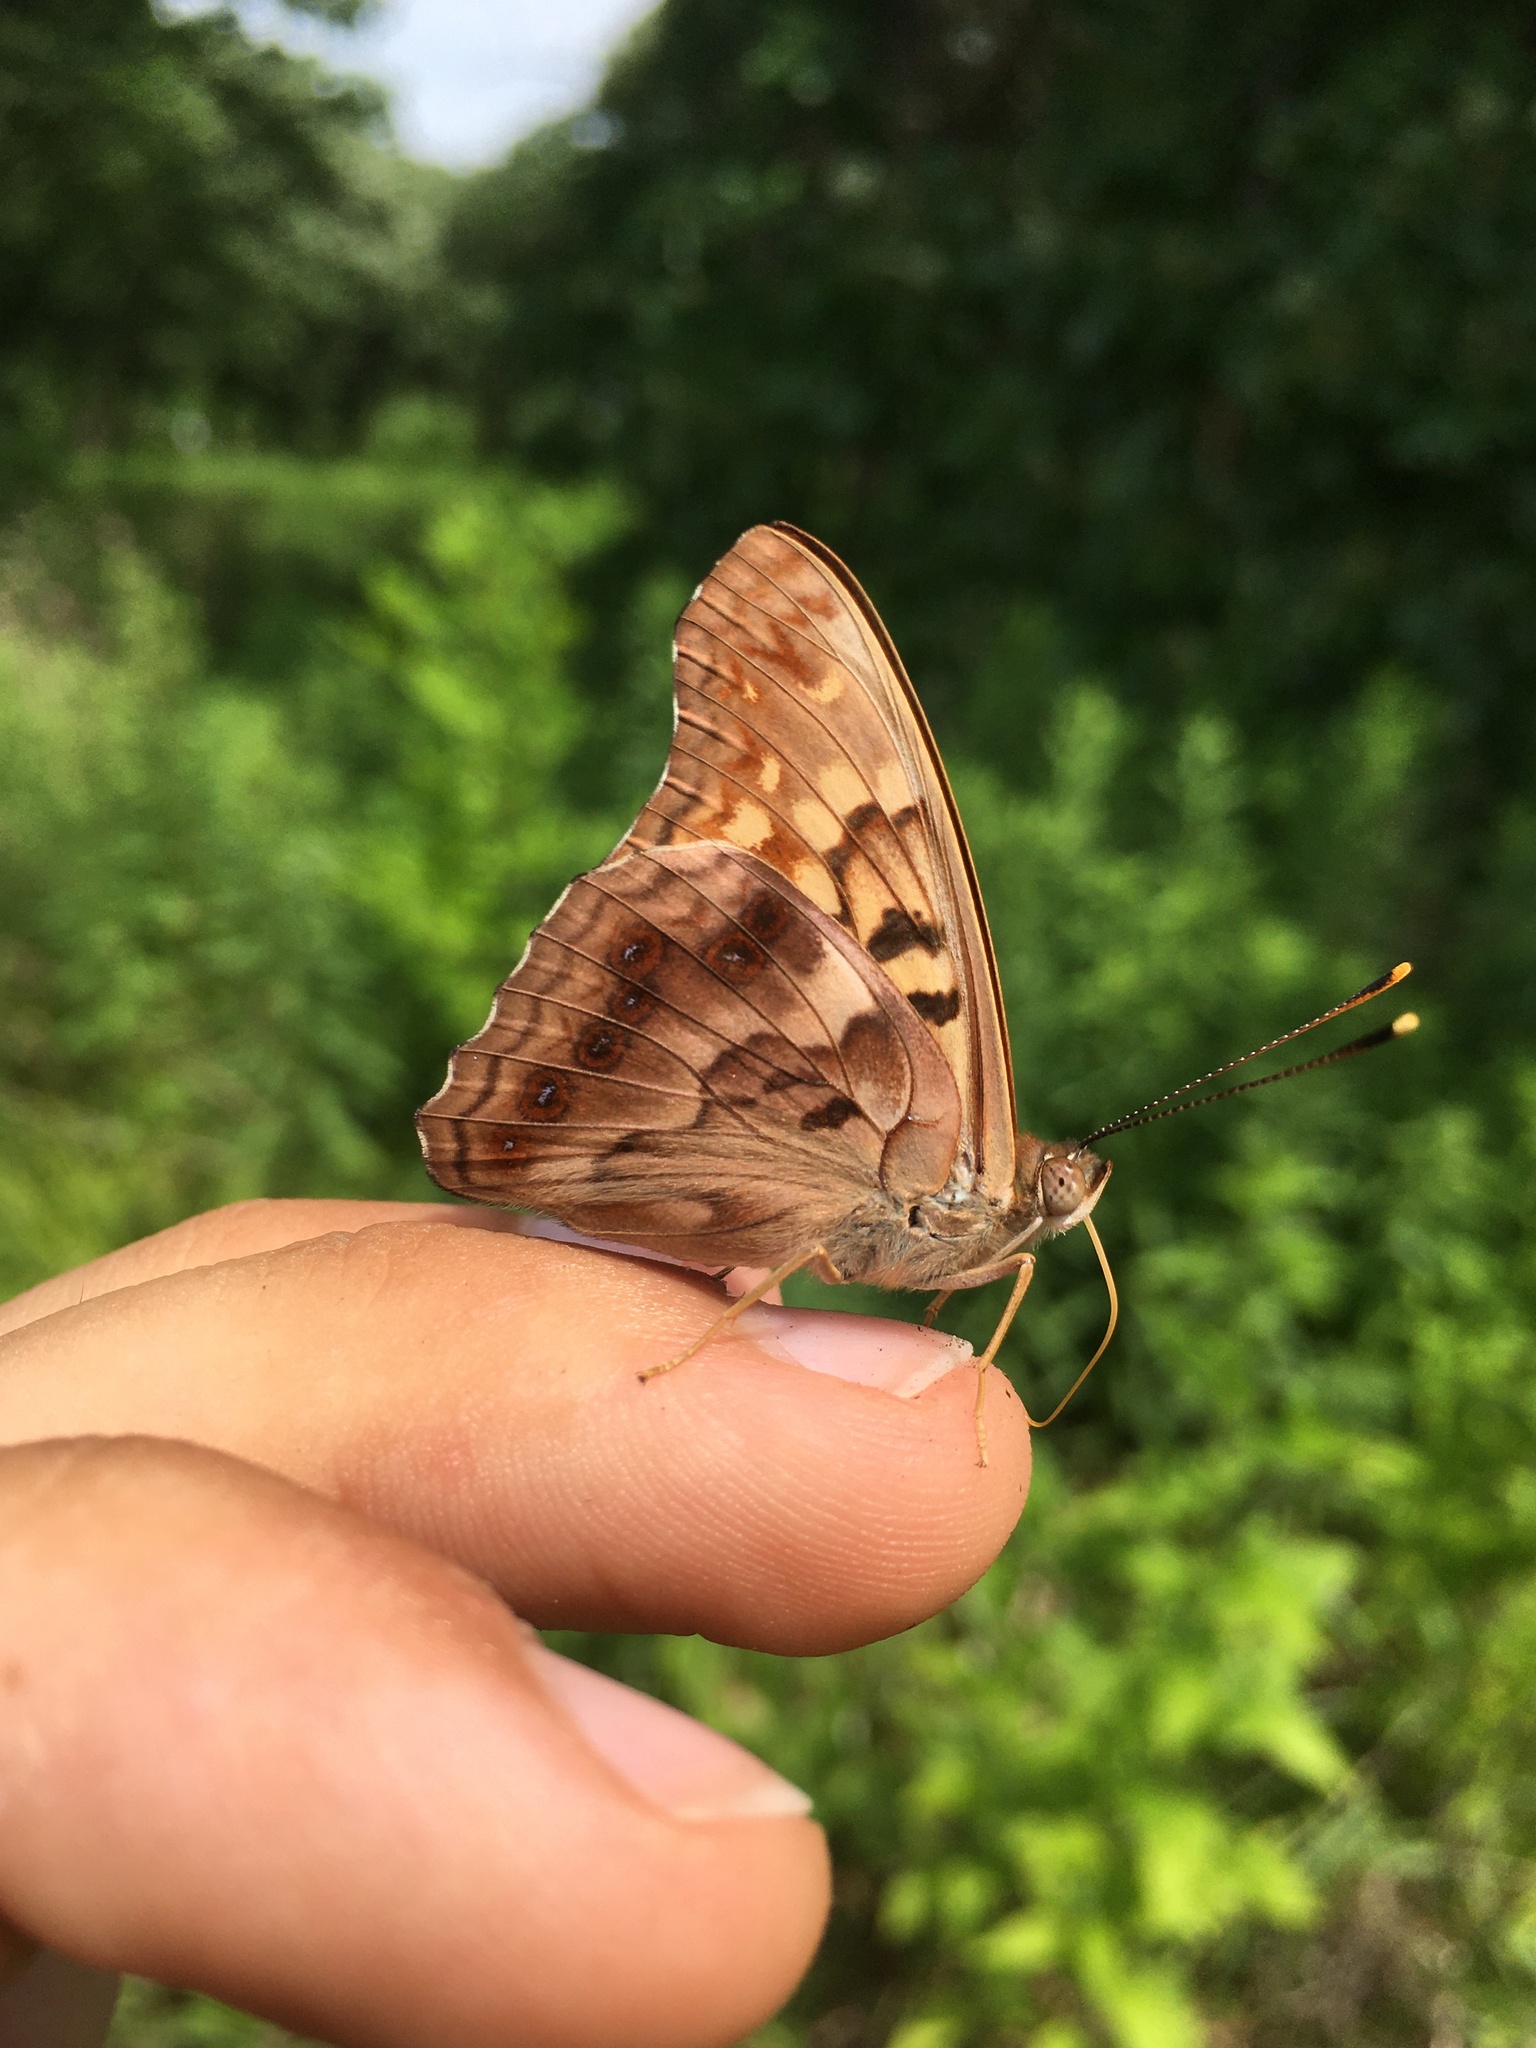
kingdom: Animalia
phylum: Arthropoda
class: Insecta
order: Lepidoptera
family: Nymphalidae
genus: Asterocampa
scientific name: Asterocampa clyton
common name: Tawny emperor
